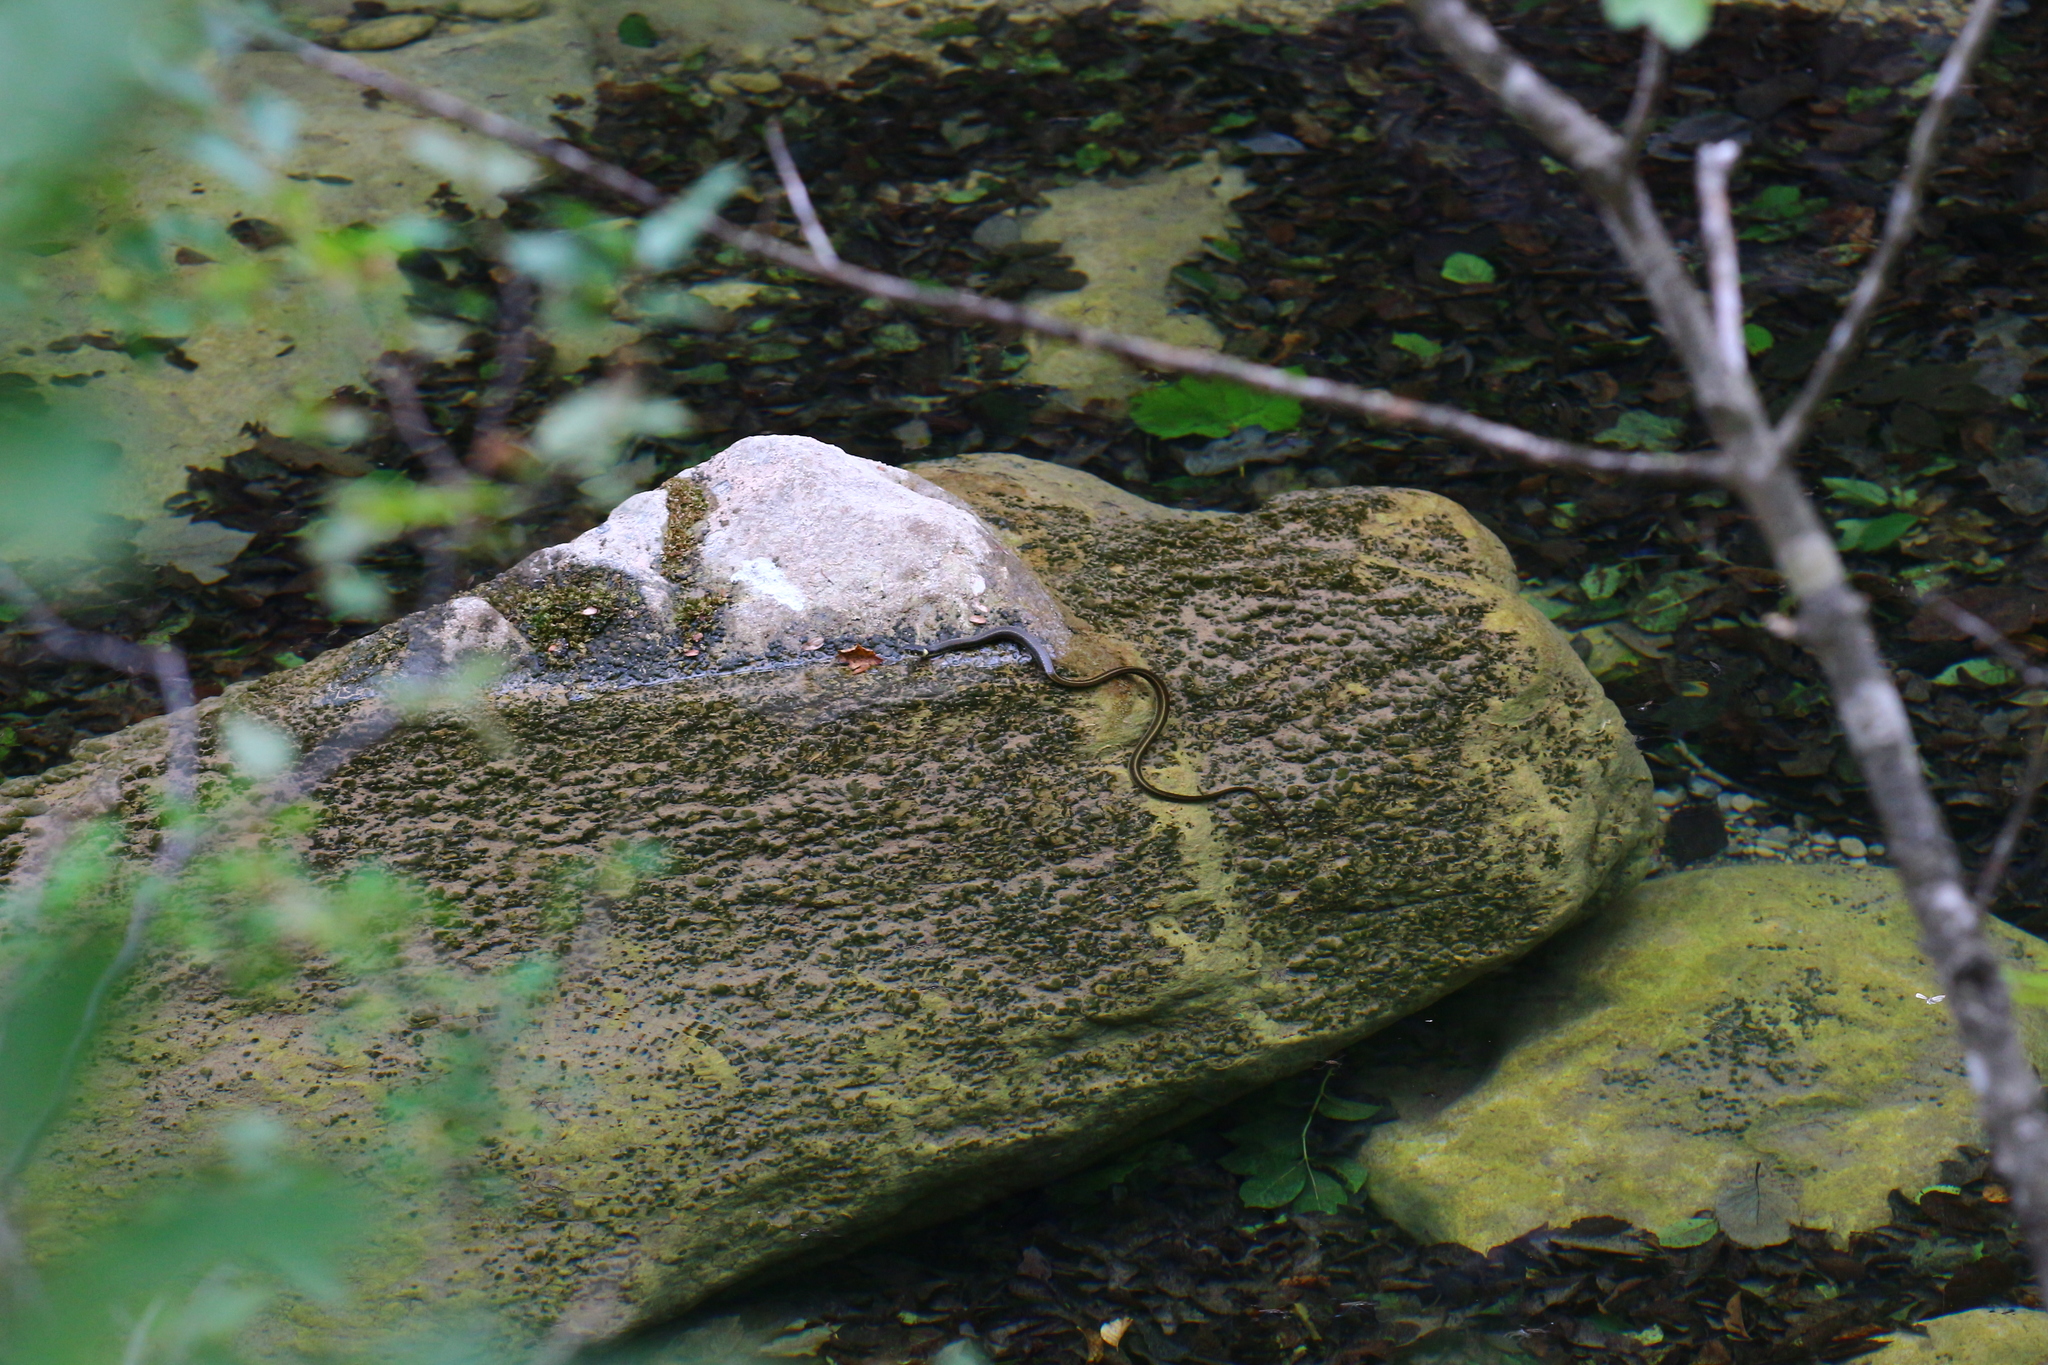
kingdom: Animalia
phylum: Chordata
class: Squamata
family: Colubridae
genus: Natrix
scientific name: Natrix natrix
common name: Grass snake
